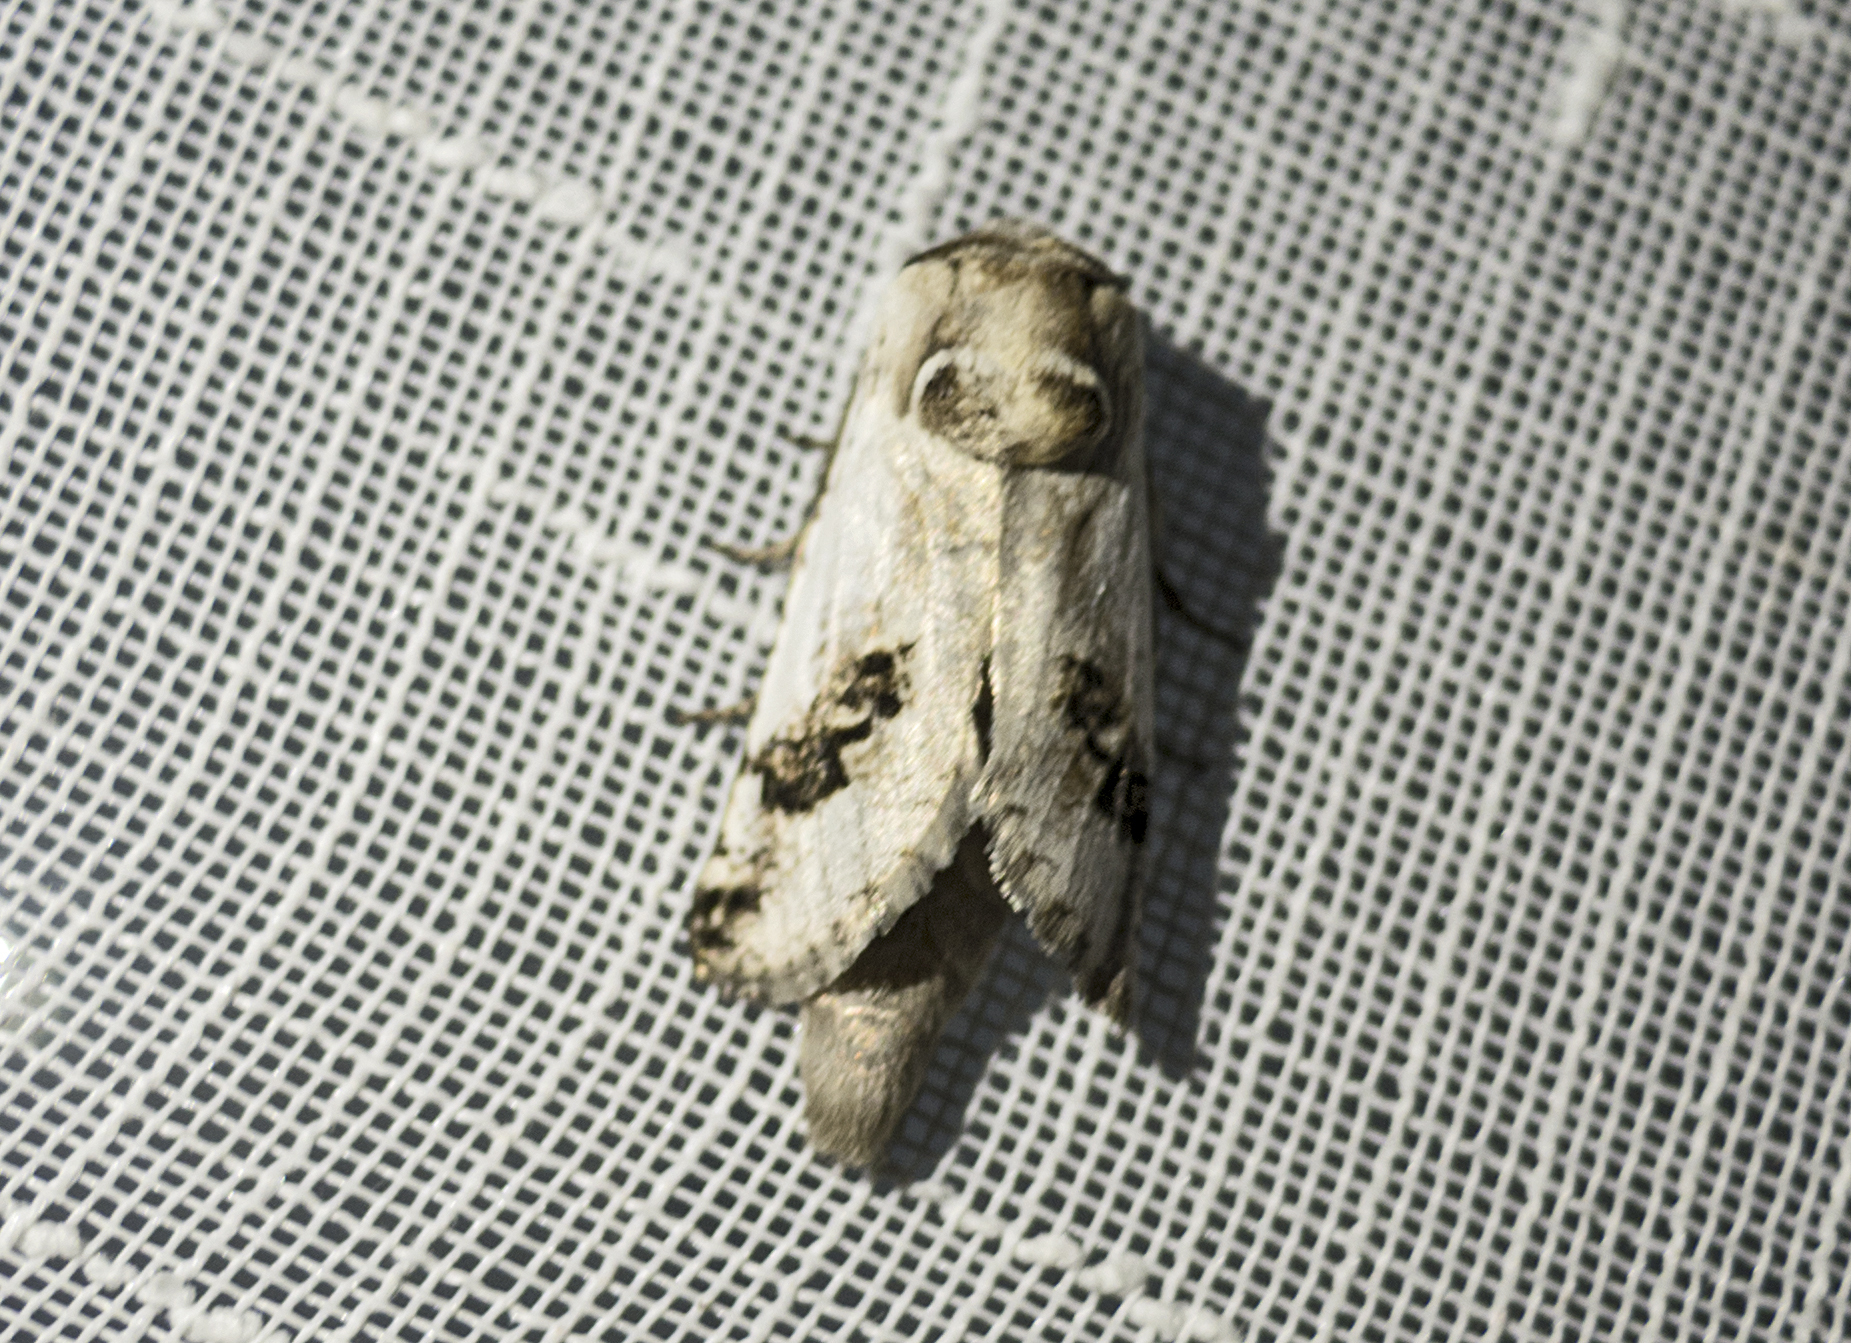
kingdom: Animalia
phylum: Arthropoda
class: Insecta
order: Lepidoptera
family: Cossidae
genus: Parahypopta
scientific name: Parahypopta caestrum
